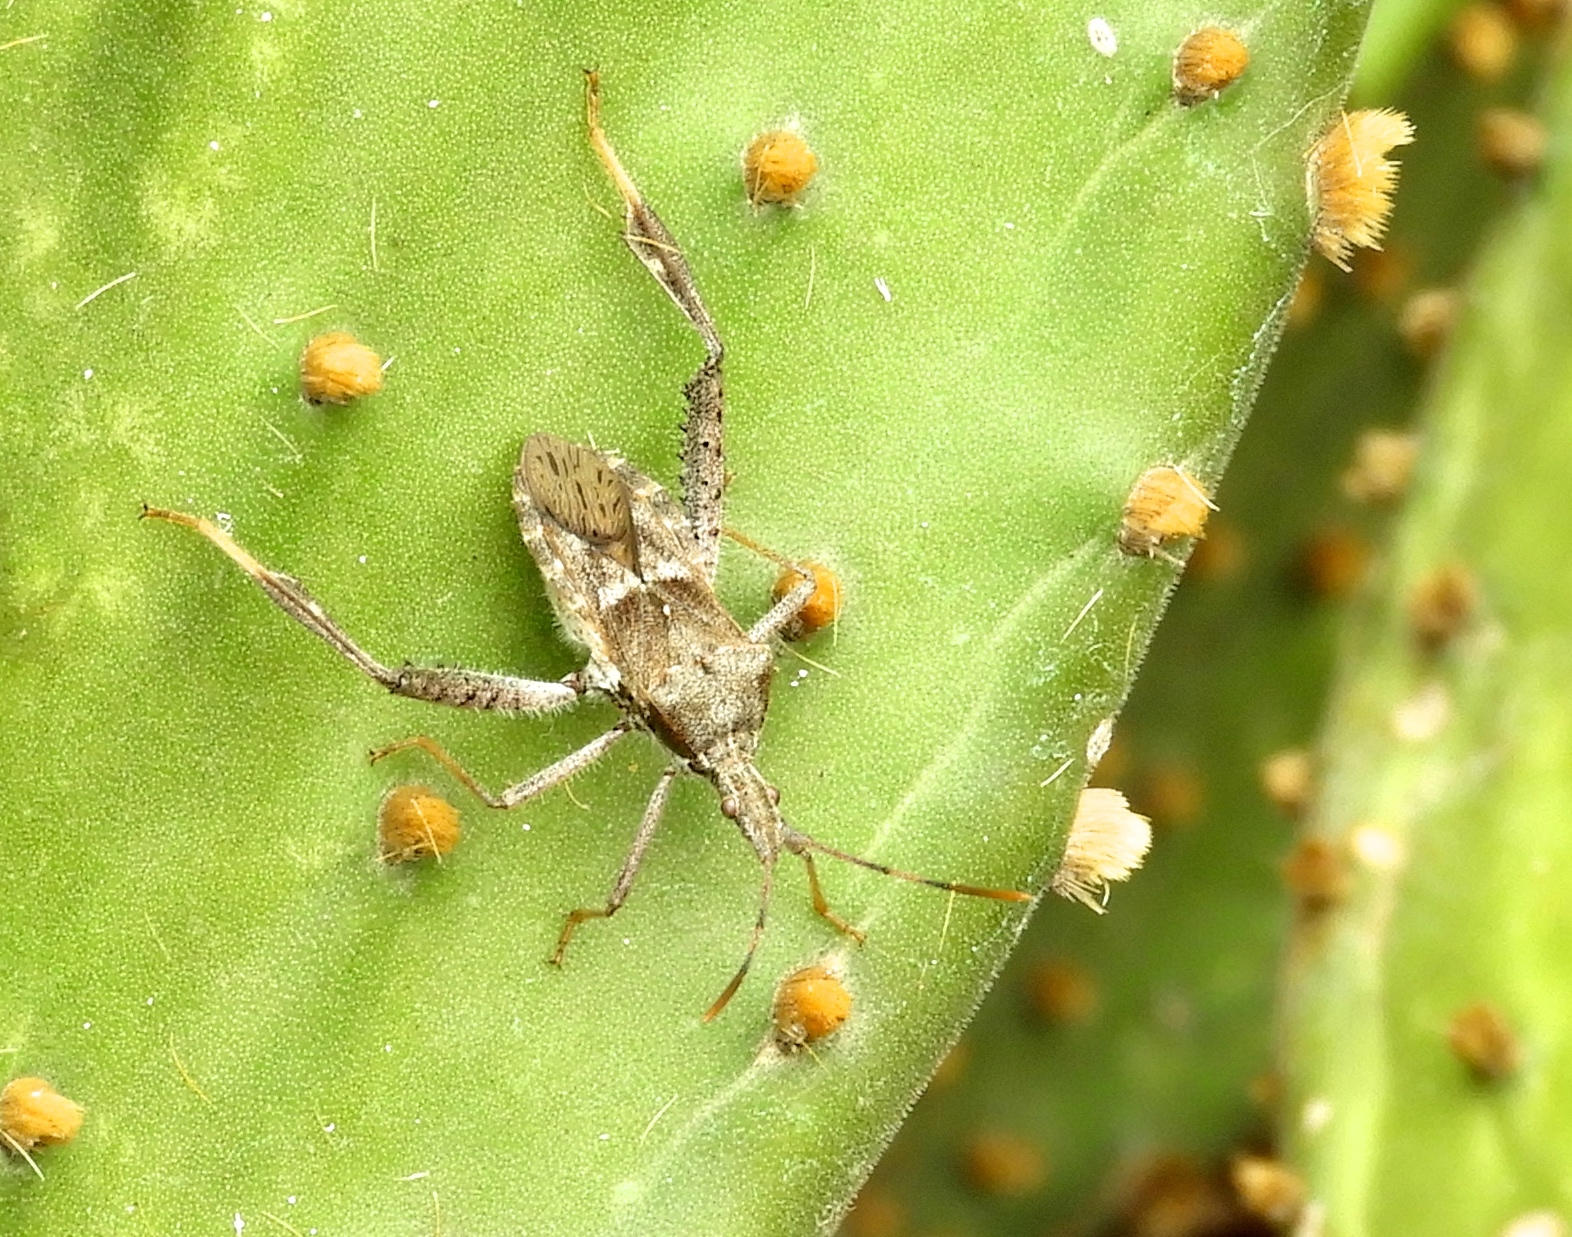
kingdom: Animalia
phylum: Arthropoda
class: Insecta
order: Hemiptera
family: Coreidae
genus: Narnia
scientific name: Narnia inornata
